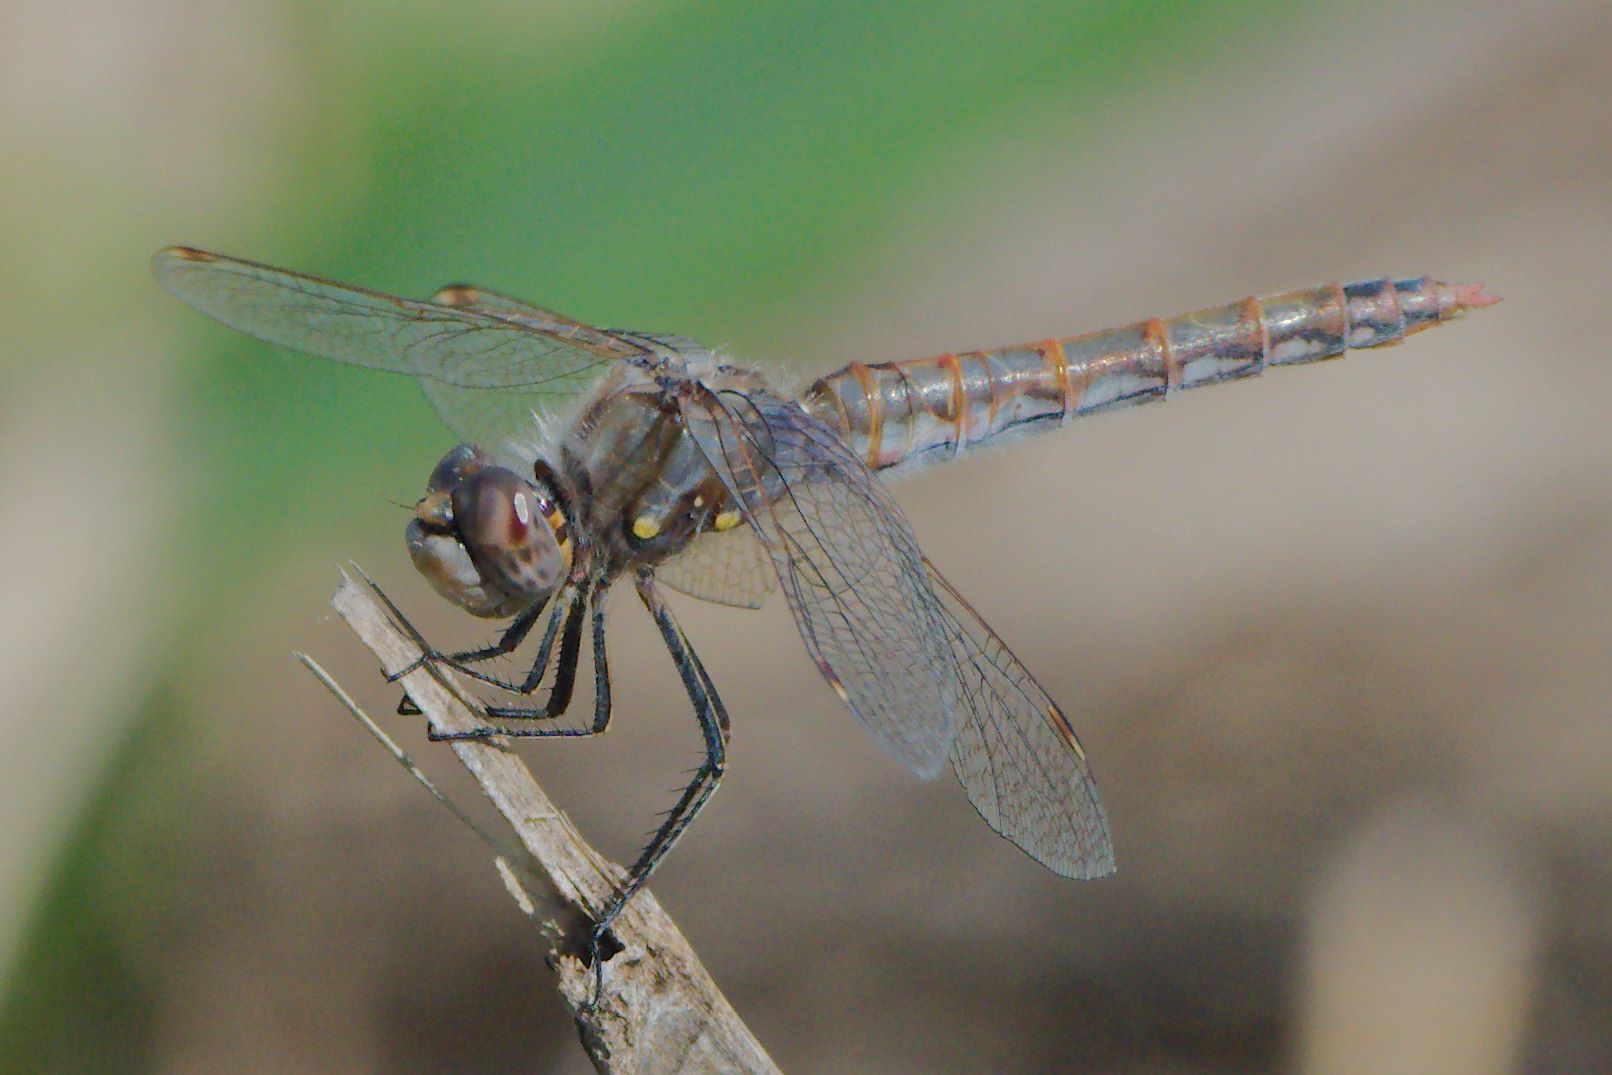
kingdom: Animalia
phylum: Arthropoda
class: Insecta
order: Odonata
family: Libellulidae
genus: Sympetrum
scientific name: Sympetrum corruptum
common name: Variegated meadowhawk
